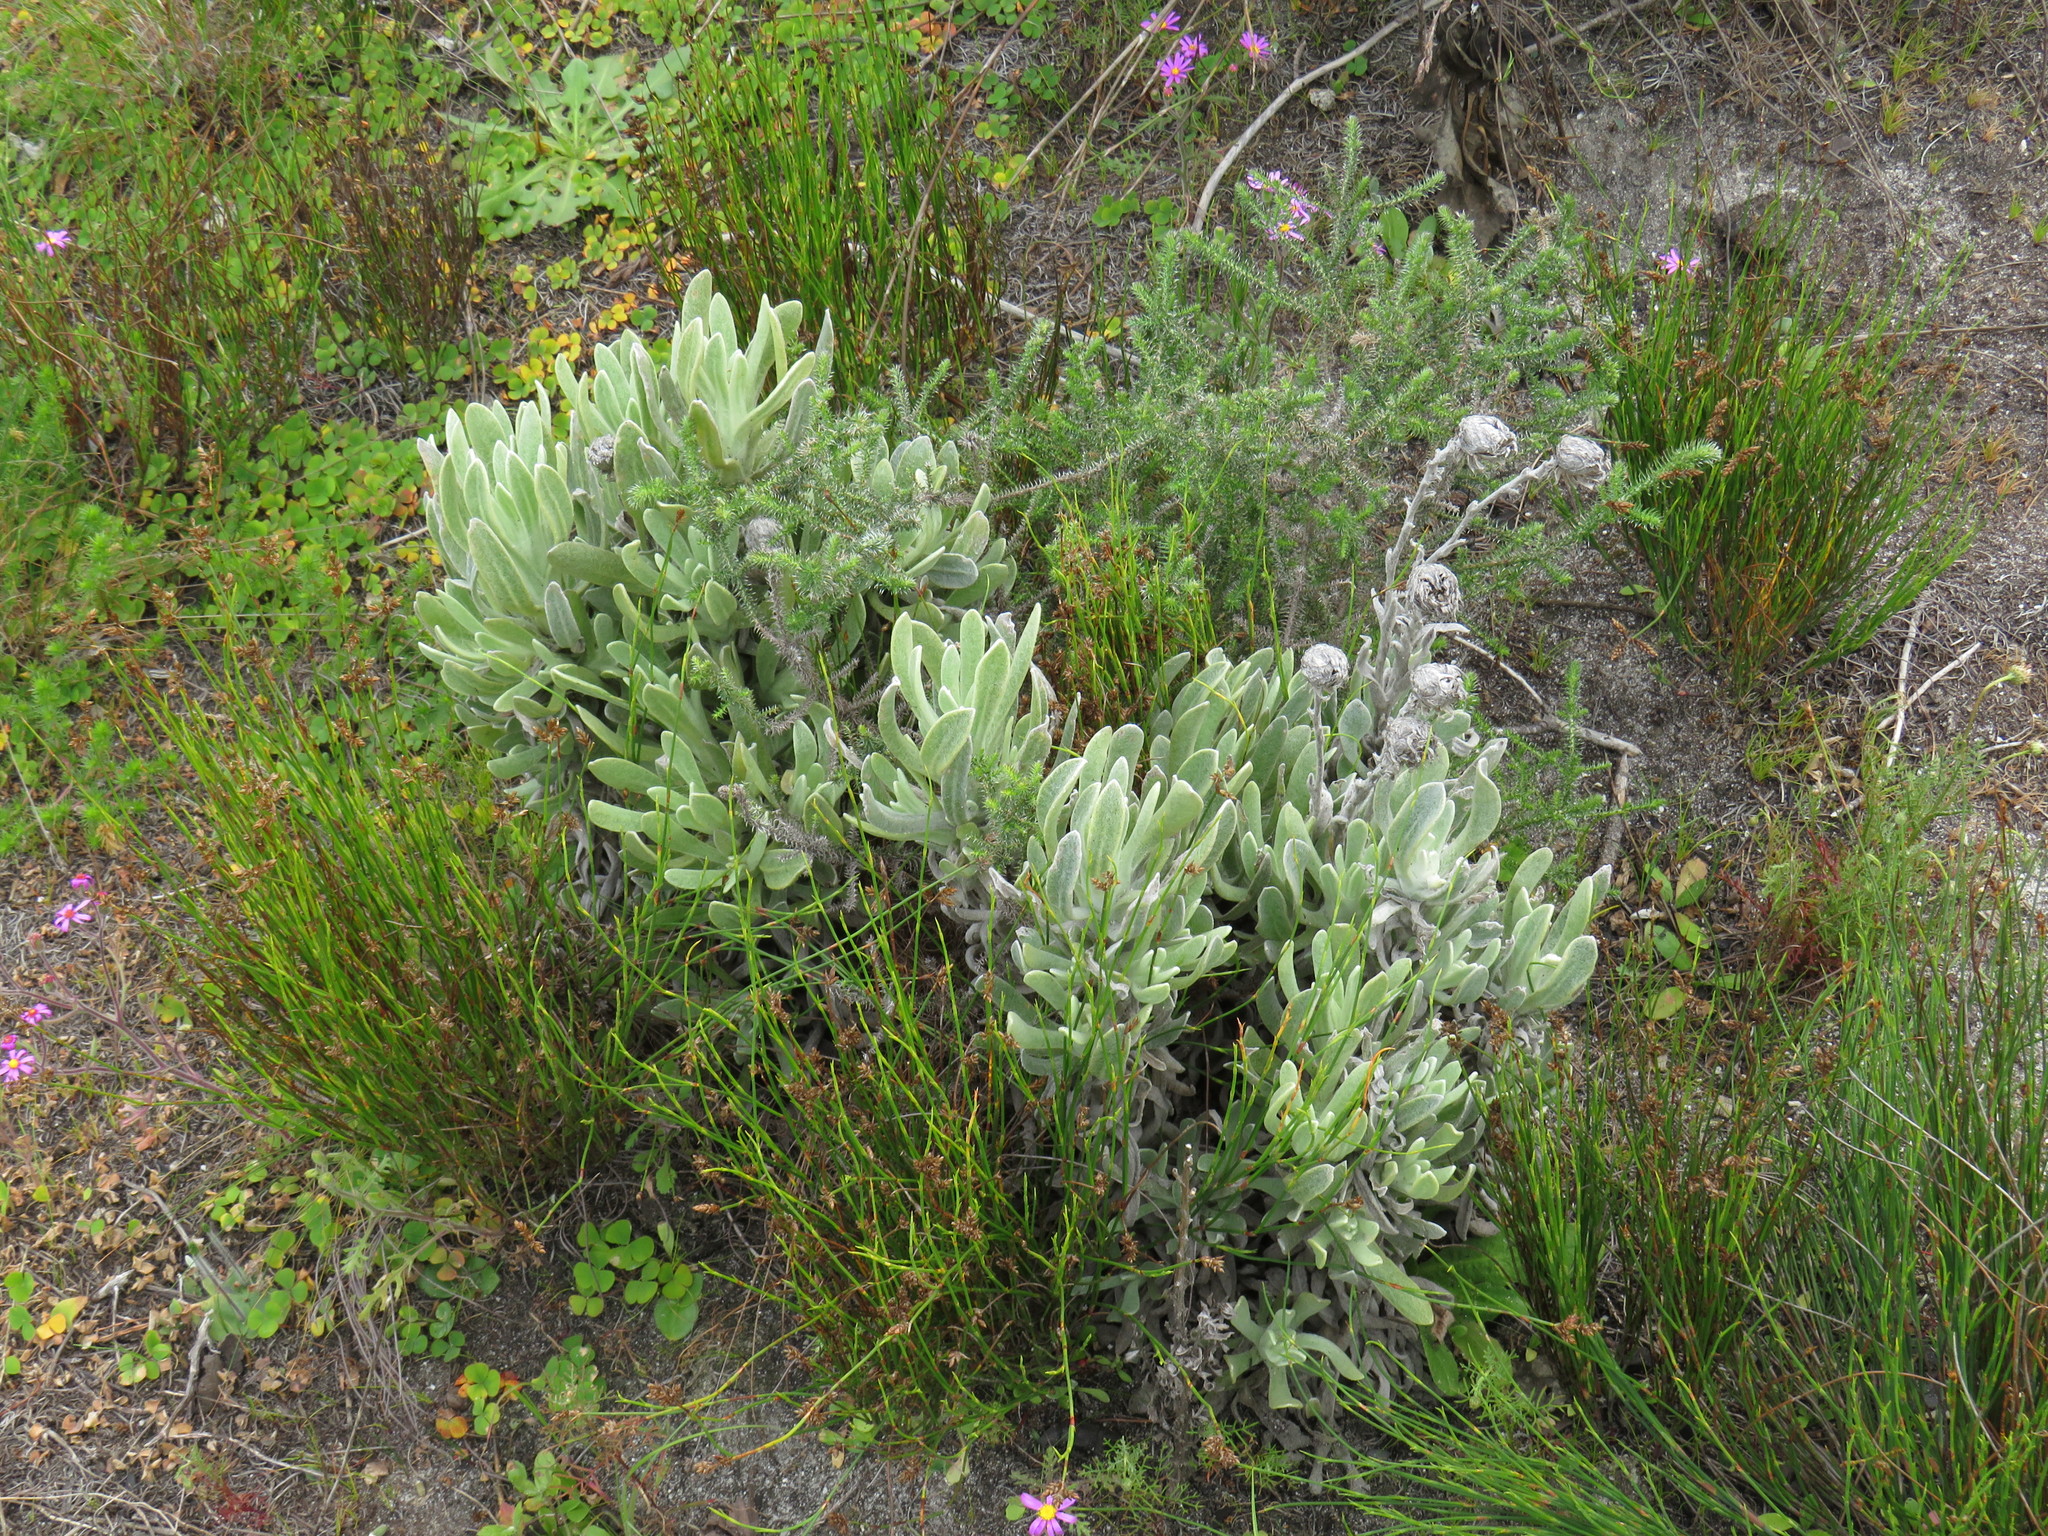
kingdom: Plantae
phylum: Tracheophyta
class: Magnoliopsida
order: Asterales
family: Asteraceae
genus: Syncarpha
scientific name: Syncarpha vestita
